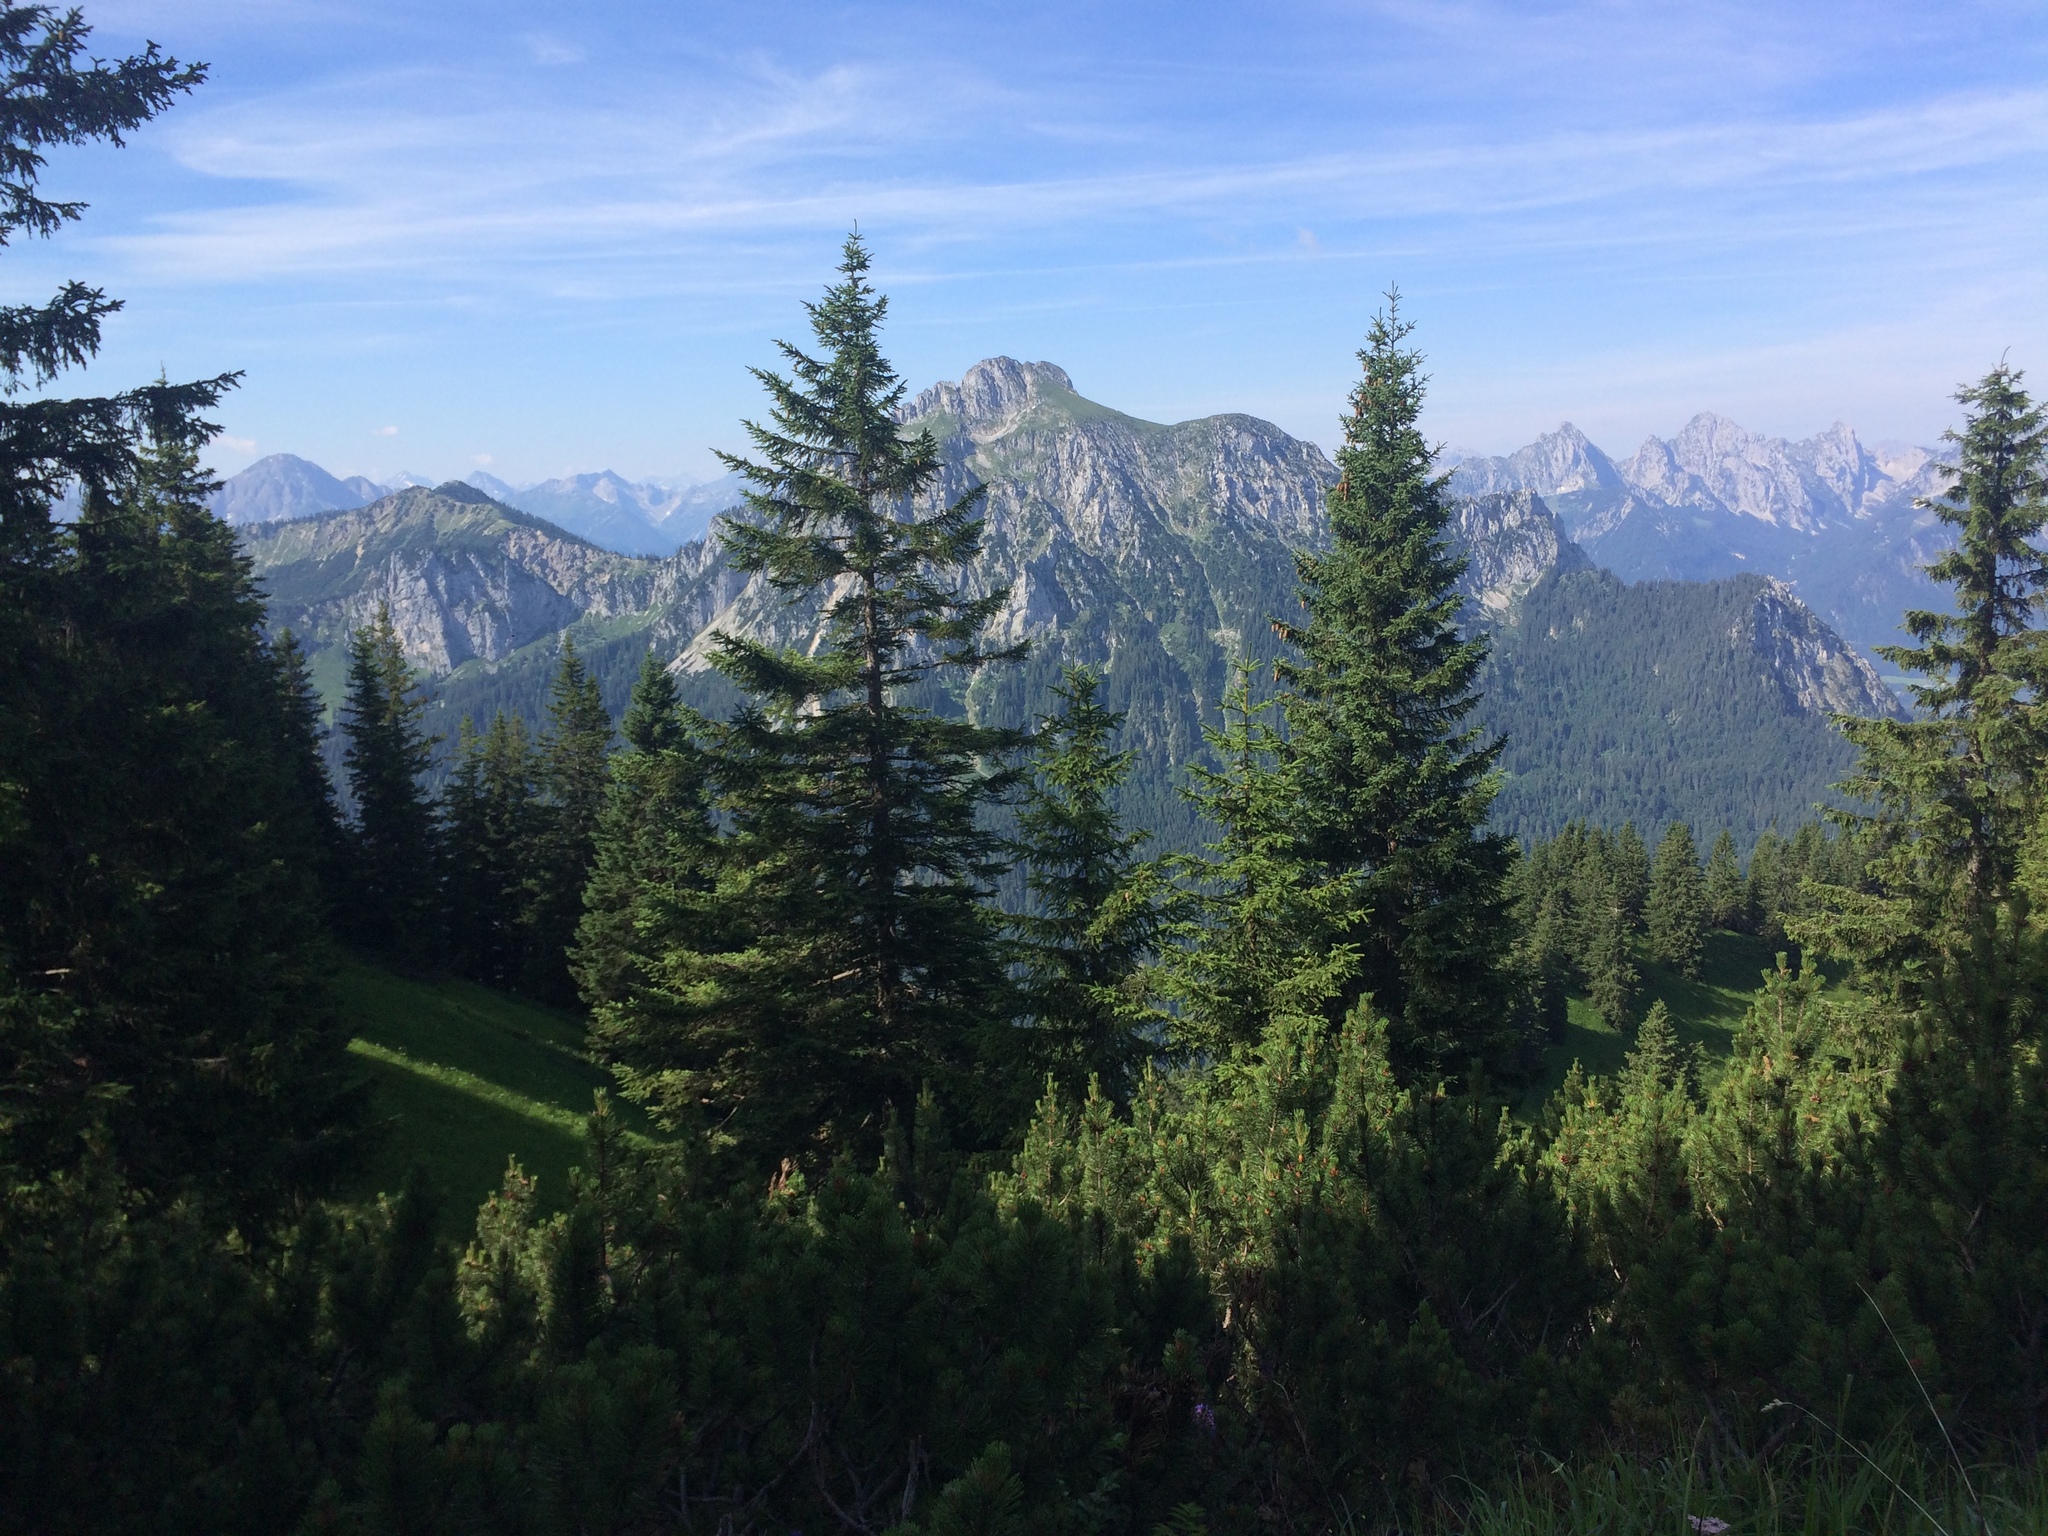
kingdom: Plantae
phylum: Tracheophyta
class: Pinopsida
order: Pinales
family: Pinaceae
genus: Picea
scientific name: Picea abies
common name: Norway spruce
